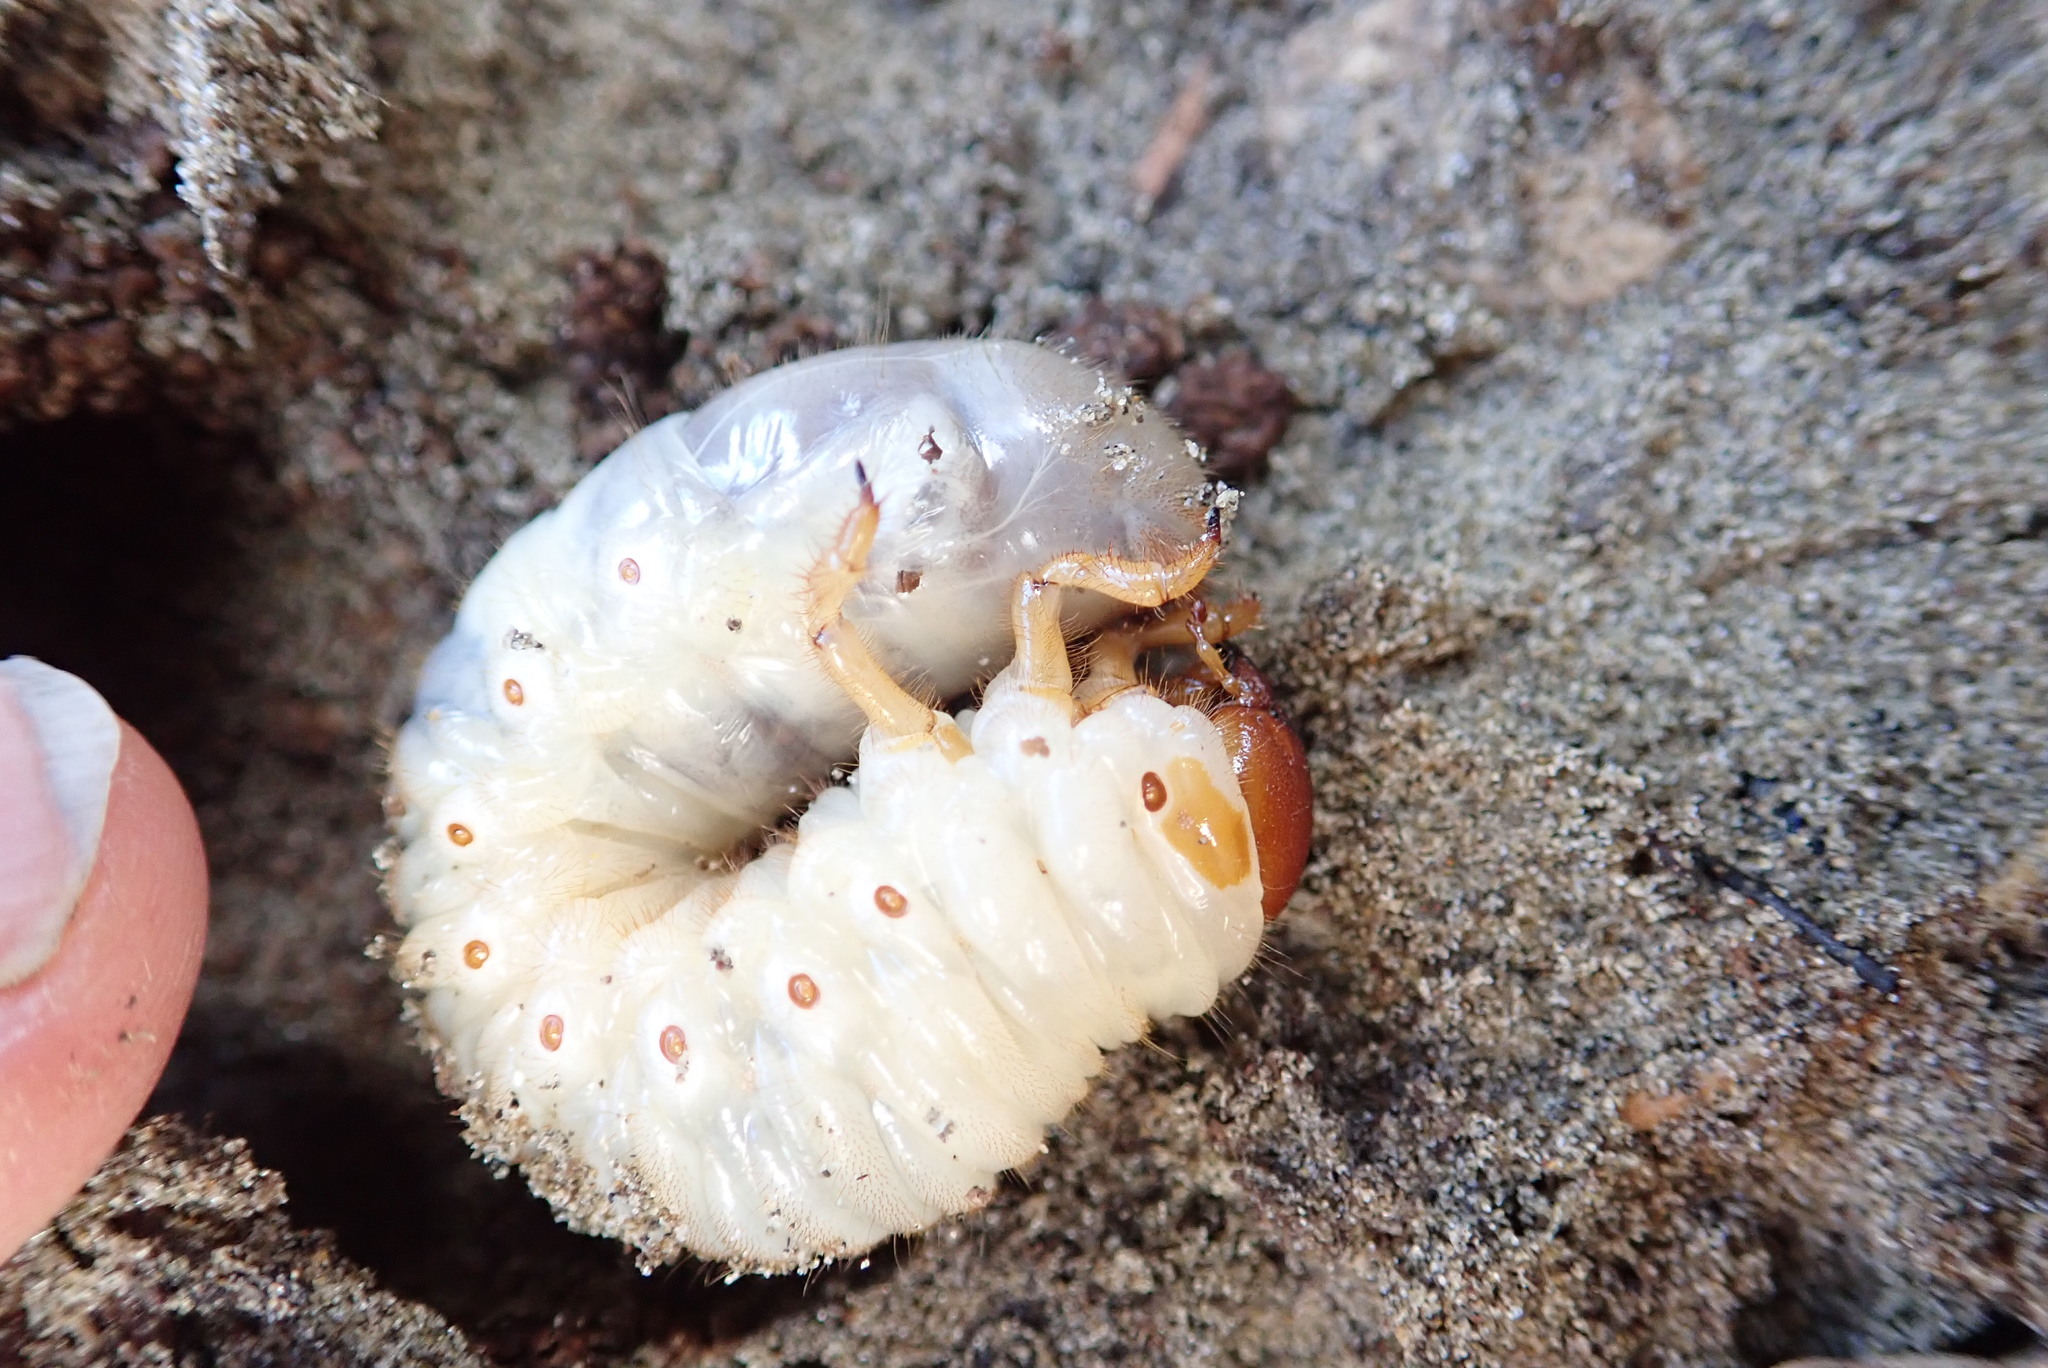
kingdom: Animalia
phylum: Arthropoda
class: Insecta
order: Coleoptera
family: Scarabaeidae
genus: Pericoptus
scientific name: Pericoptus truncatus
